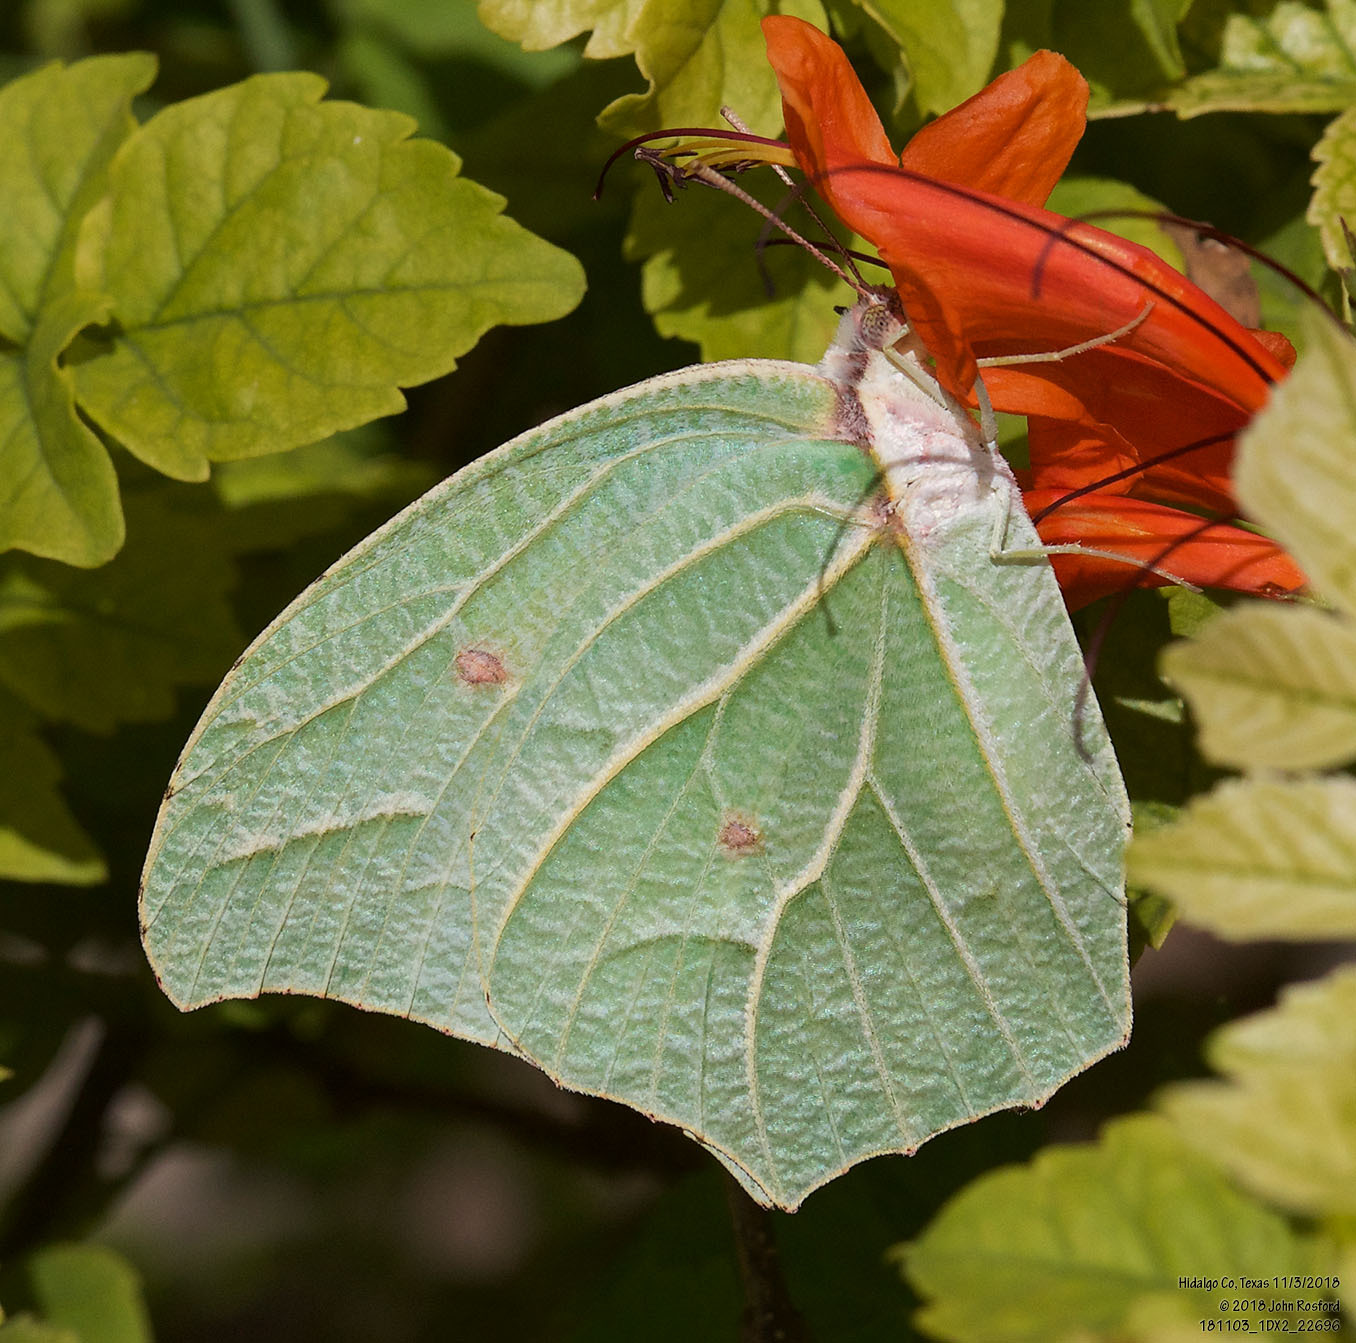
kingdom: Animalia
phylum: Arthropoda
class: Insecta
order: Lepidoptera
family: Pieridae
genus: Anteos
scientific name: Anteos clorinde
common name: White angled sulphur
